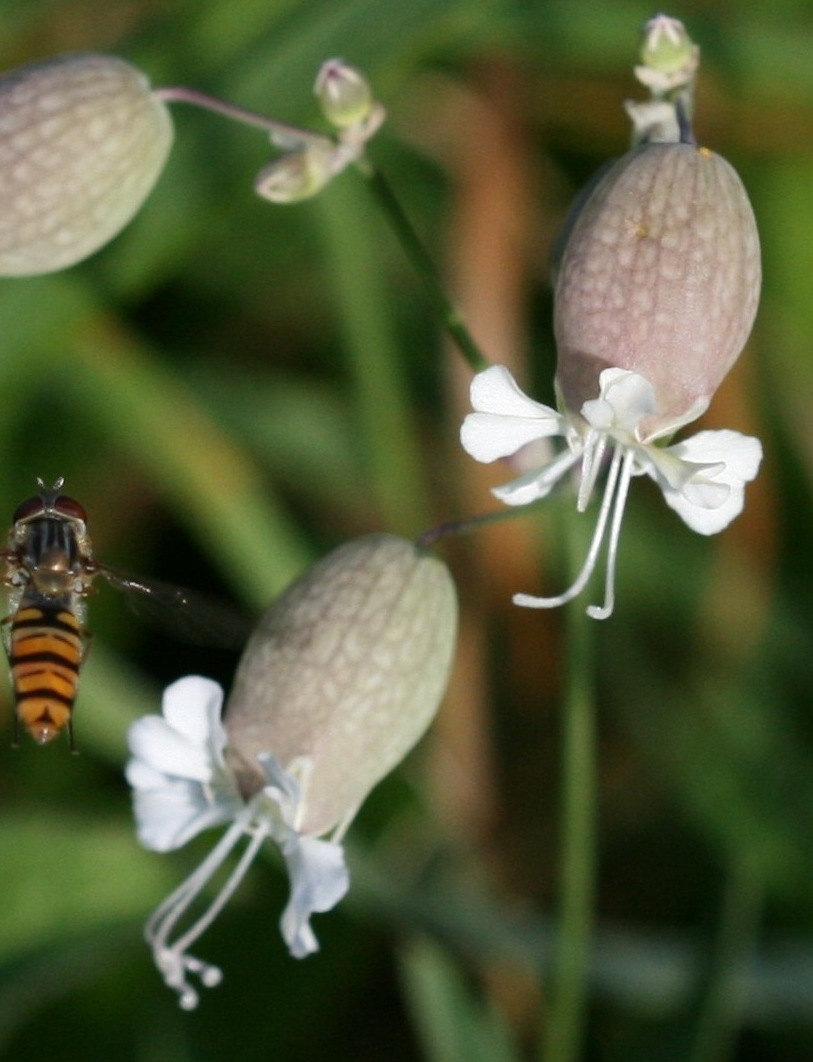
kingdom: Plantae
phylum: Tracheophyta
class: Magnoliopsida
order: Caryophyllales
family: Caryophyllaceae
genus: Silene
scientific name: Silene vulgaris
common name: Bladder campion
